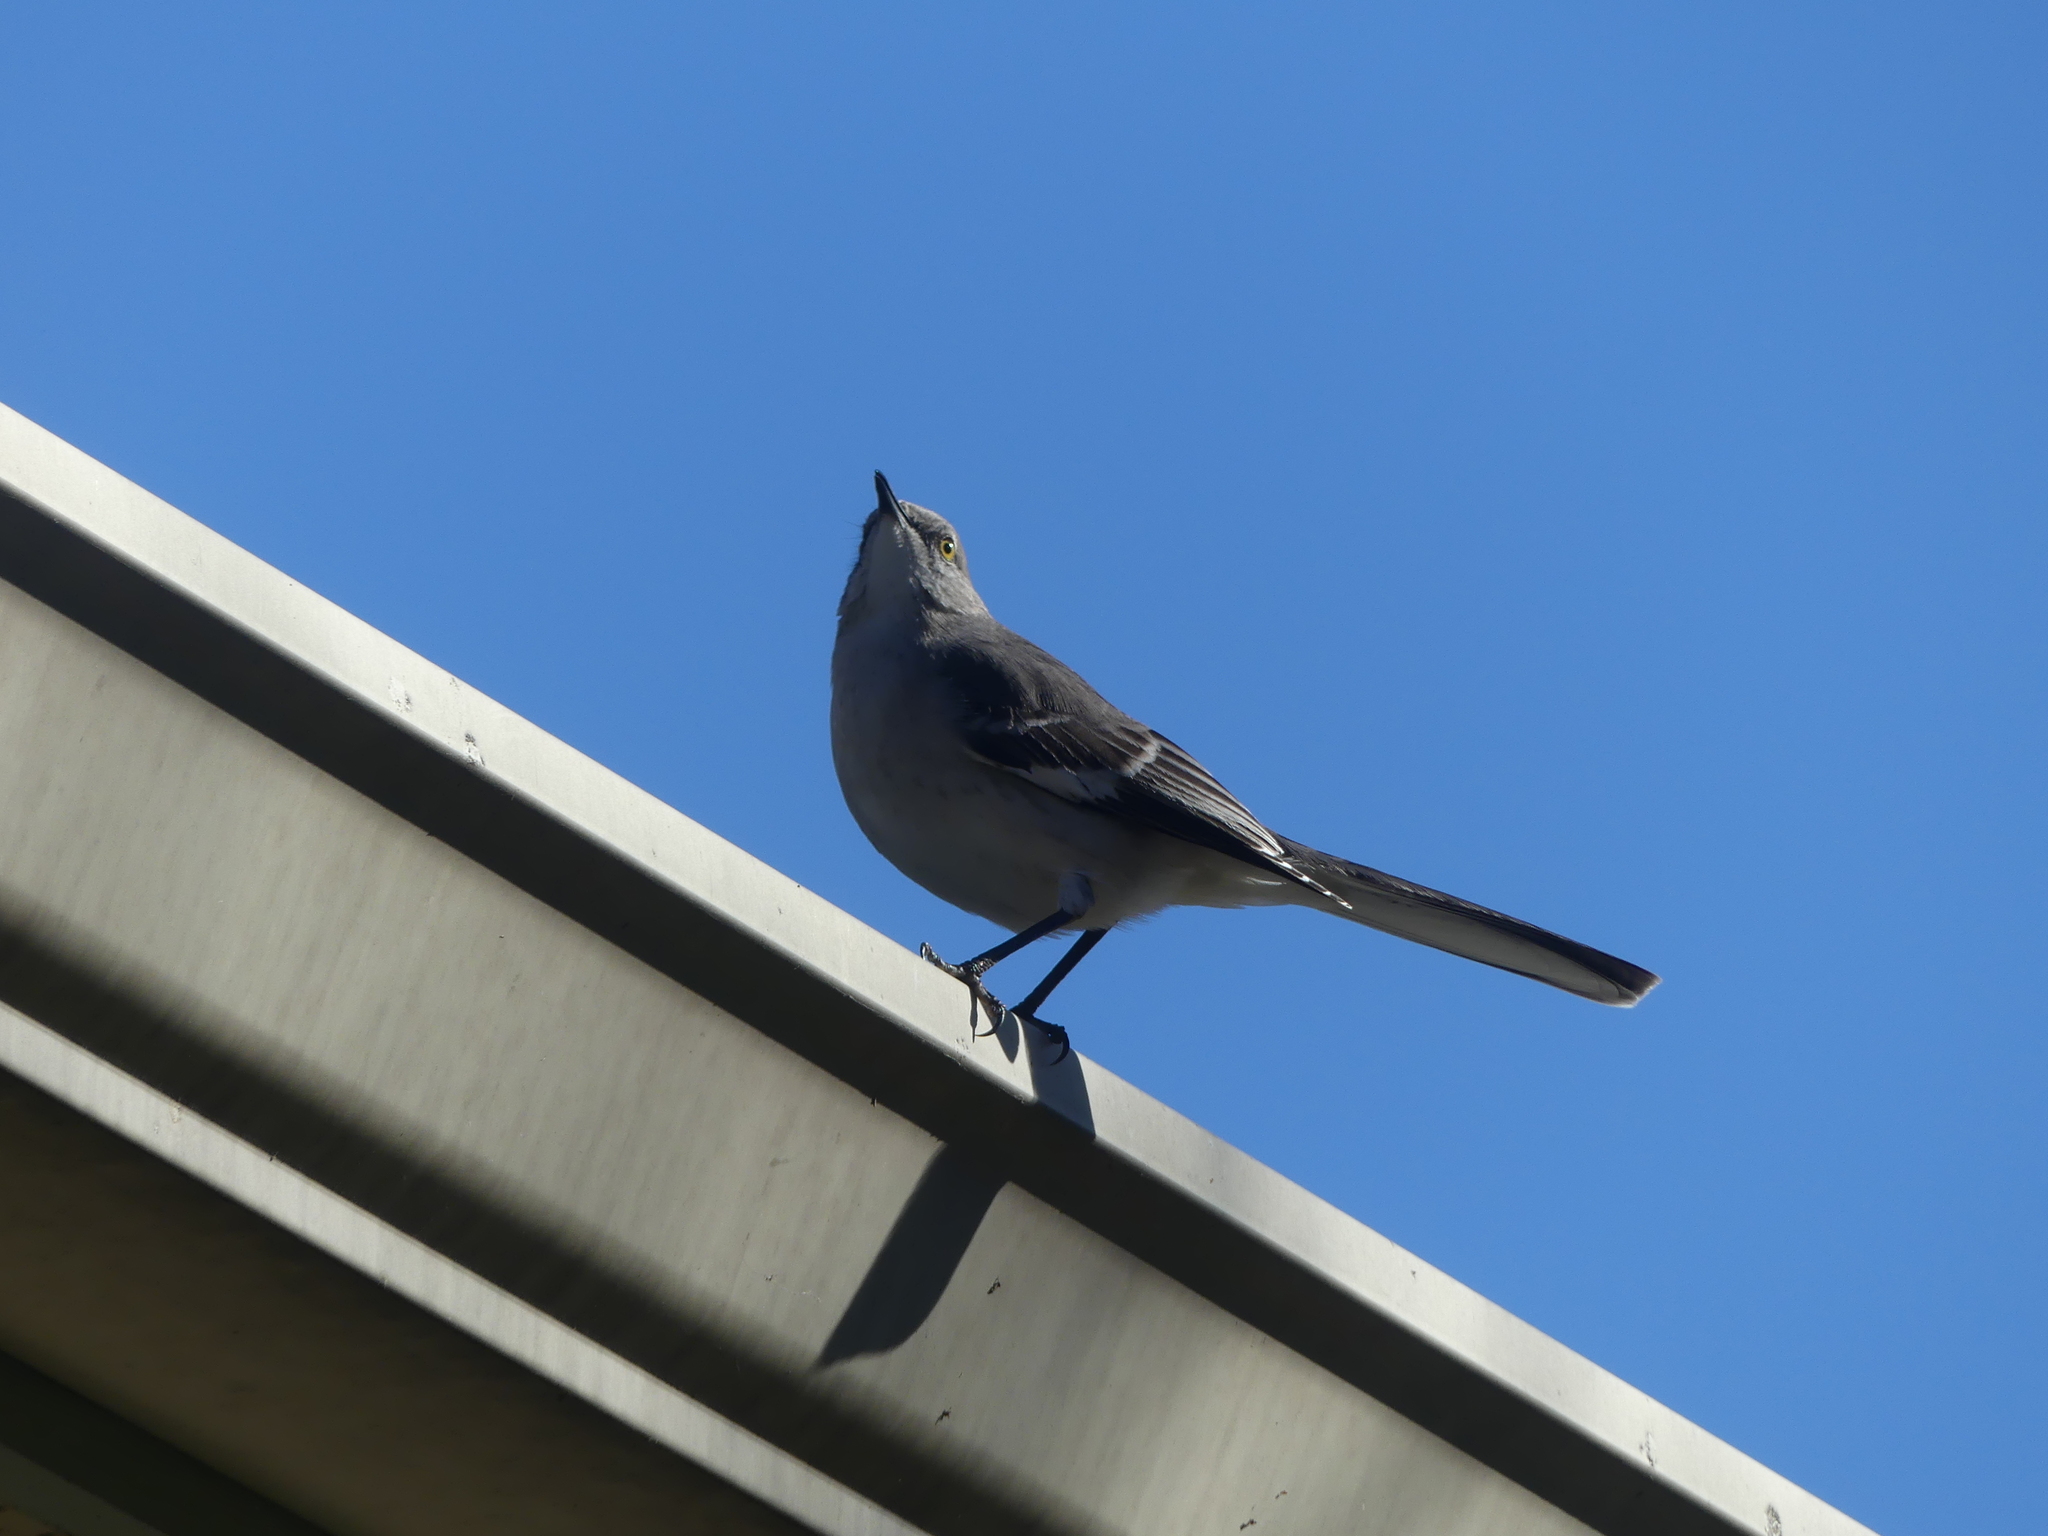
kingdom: Animalia
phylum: Chordata
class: Aves
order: Passeriformes
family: Mimidae
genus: Mimus
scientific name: Mimus polyglottos
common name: Northern mockingbird
